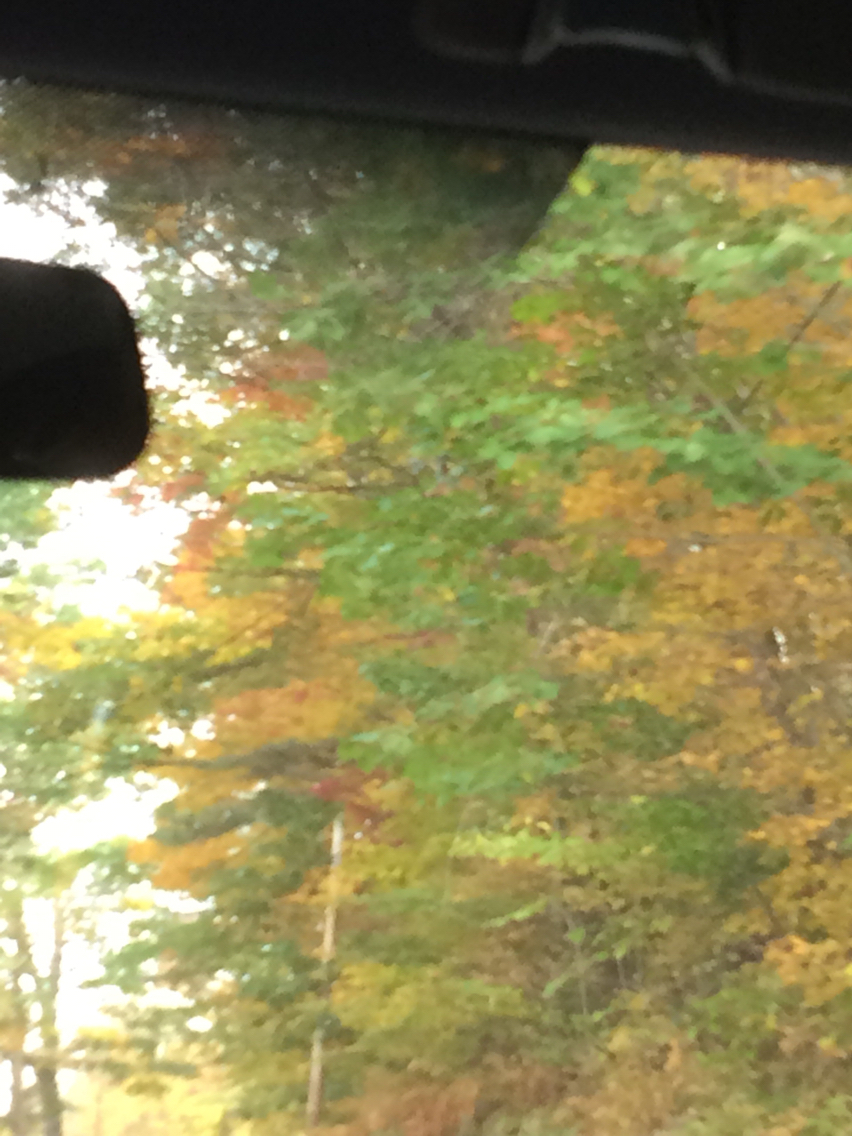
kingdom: Plantae
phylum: Tracheophyta
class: Magnoliopsida
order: Fagales
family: Fagaceae
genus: Quercus
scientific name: Quercus rubra
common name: Red oak
